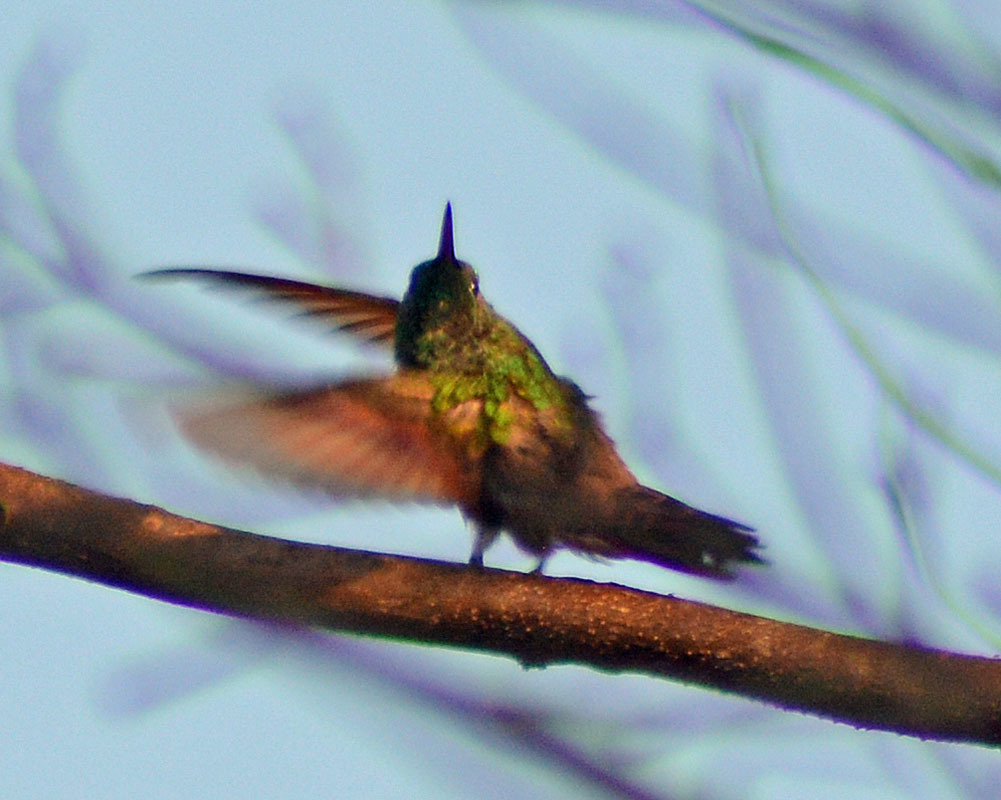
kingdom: Animalia
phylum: Chordata
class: Aves
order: Apodiformes
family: Trochilidae
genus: Saucerottia
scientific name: Saucerottia beryllina
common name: Berylline hummingbird
